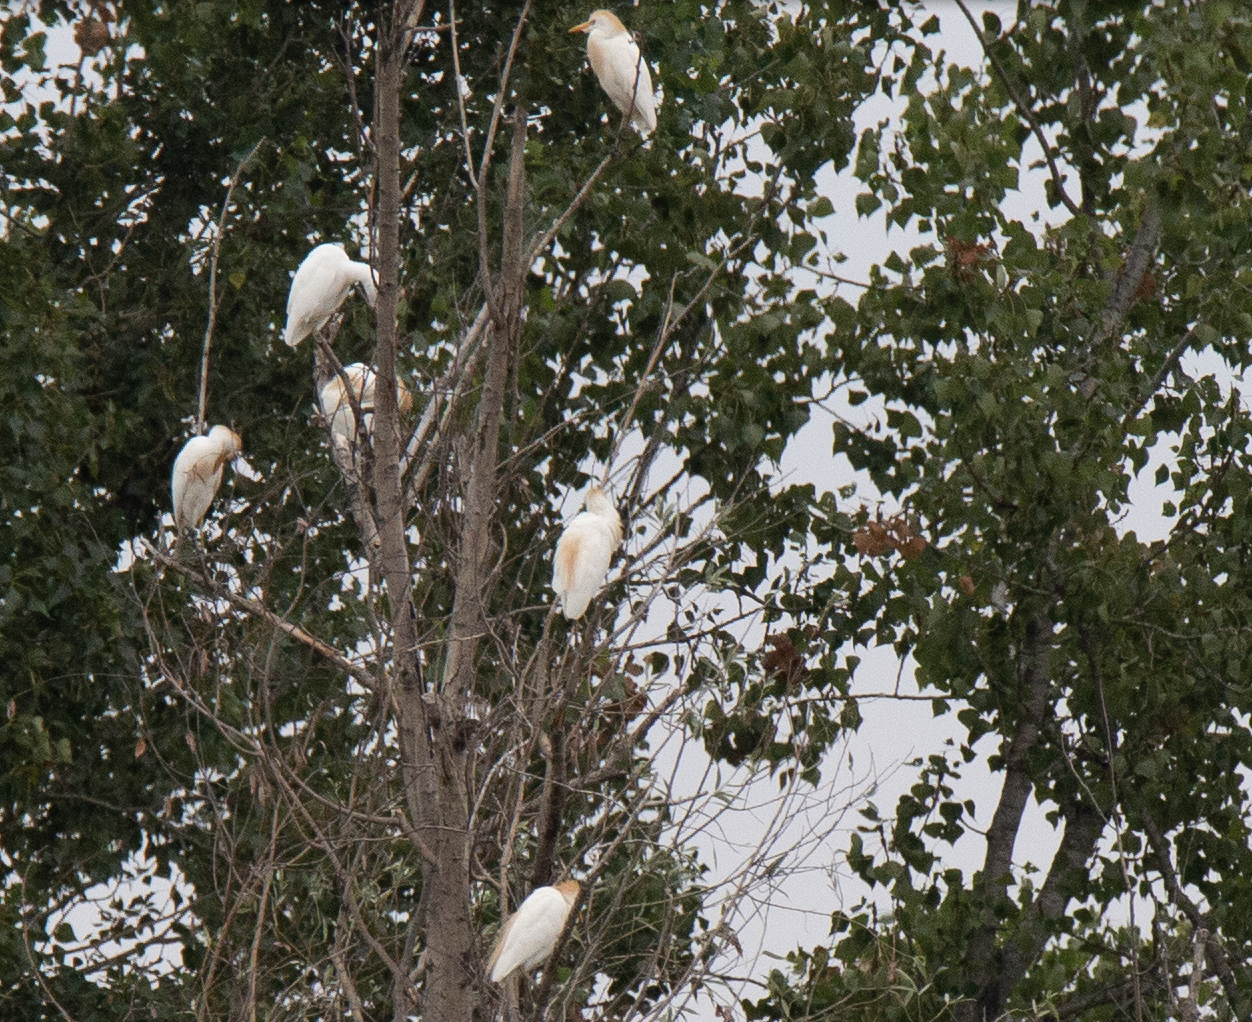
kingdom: Animalia
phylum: Chordata
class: Aves
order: Pelecaniformes
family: Ardeidae
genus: Bubulcus
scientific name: Bubulcus ibis
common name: Cattle egret
